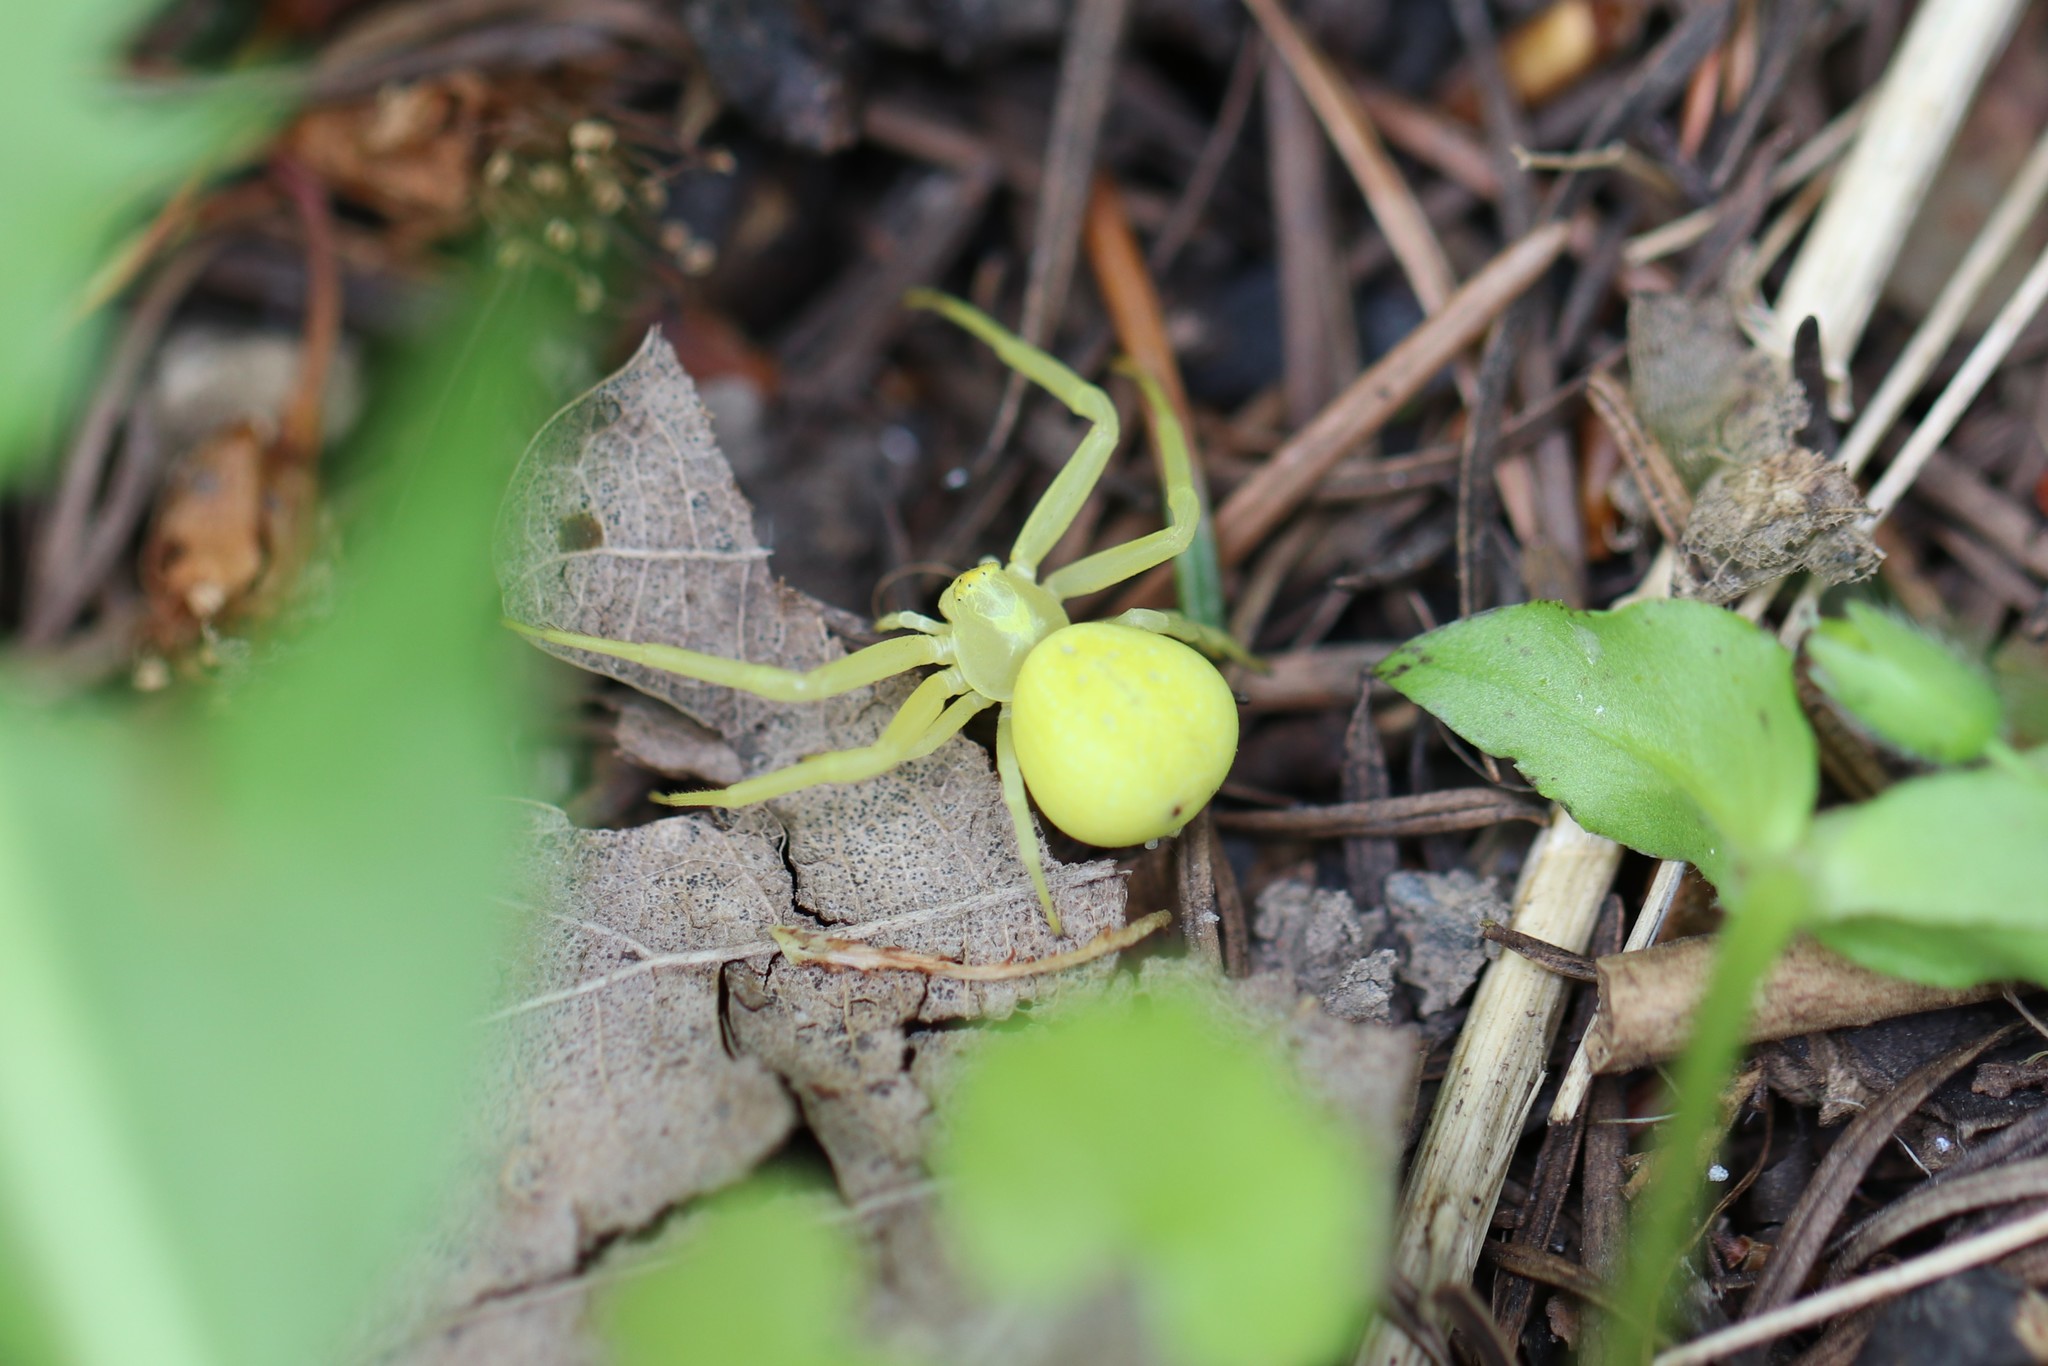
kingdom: Animalia
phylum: Arthropoda
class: Arachnida
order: Araneae
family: Thomisidae
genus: Misumena
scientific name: Misumena vatia
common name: Goldenrod crab spider
